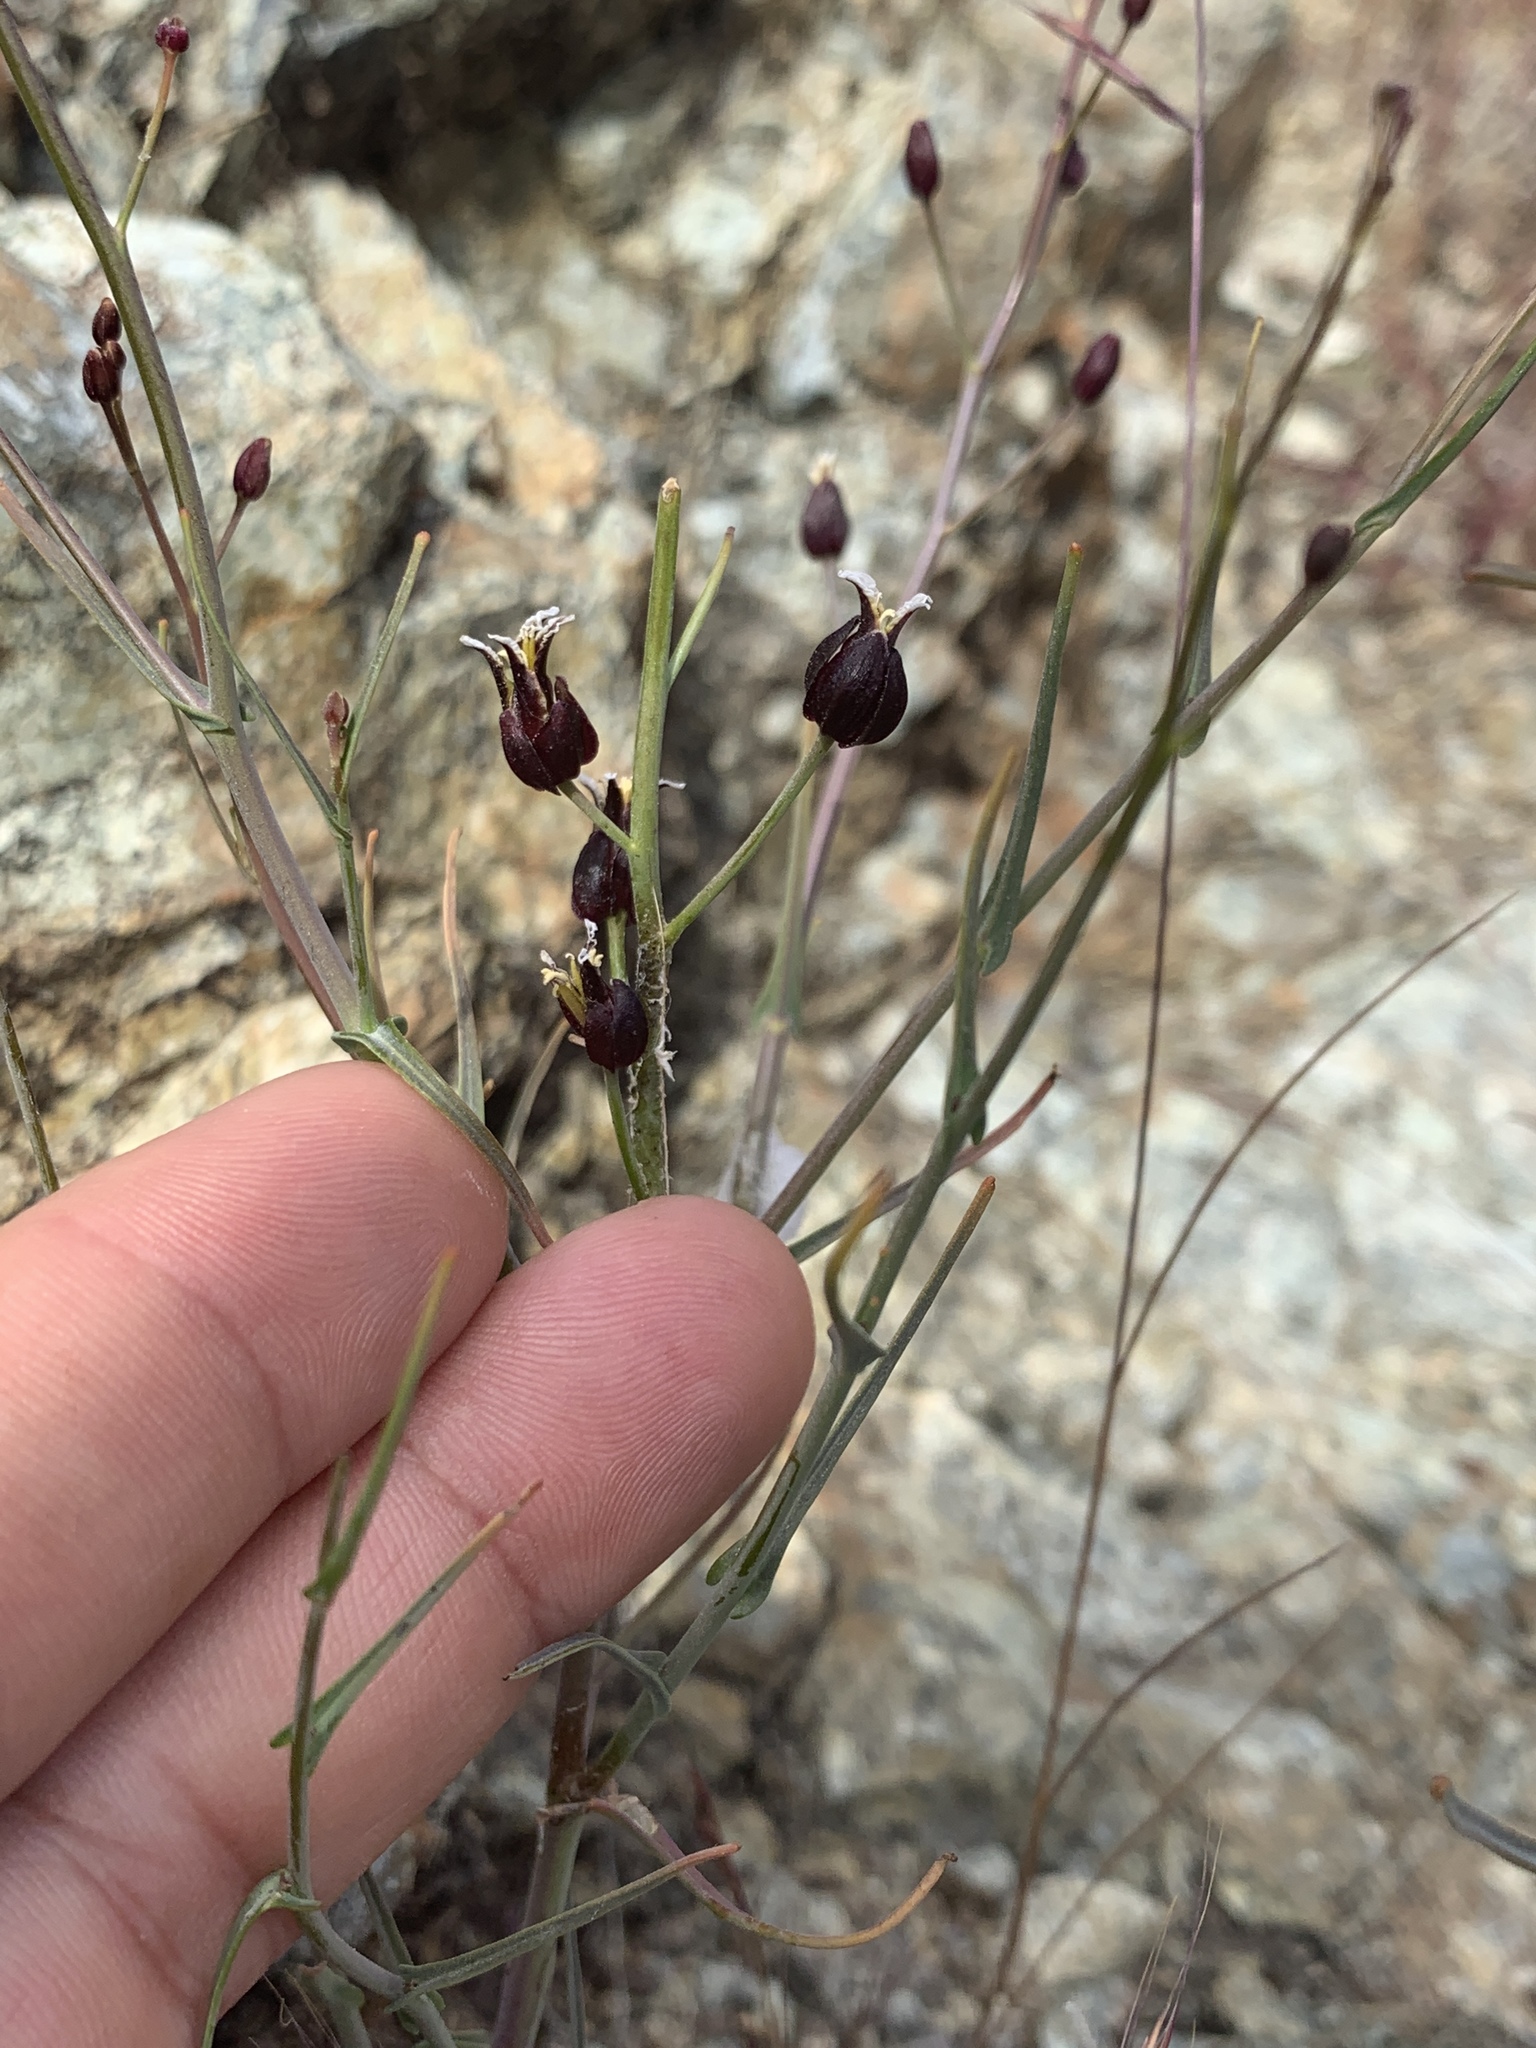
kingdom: Plantae
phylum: Tracheophyta
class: Magnoliopsida
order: Brassicales
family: Brassicaceae
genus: Streptanthus
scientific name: Streptanthus glandulosus
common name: Jewel-flower
